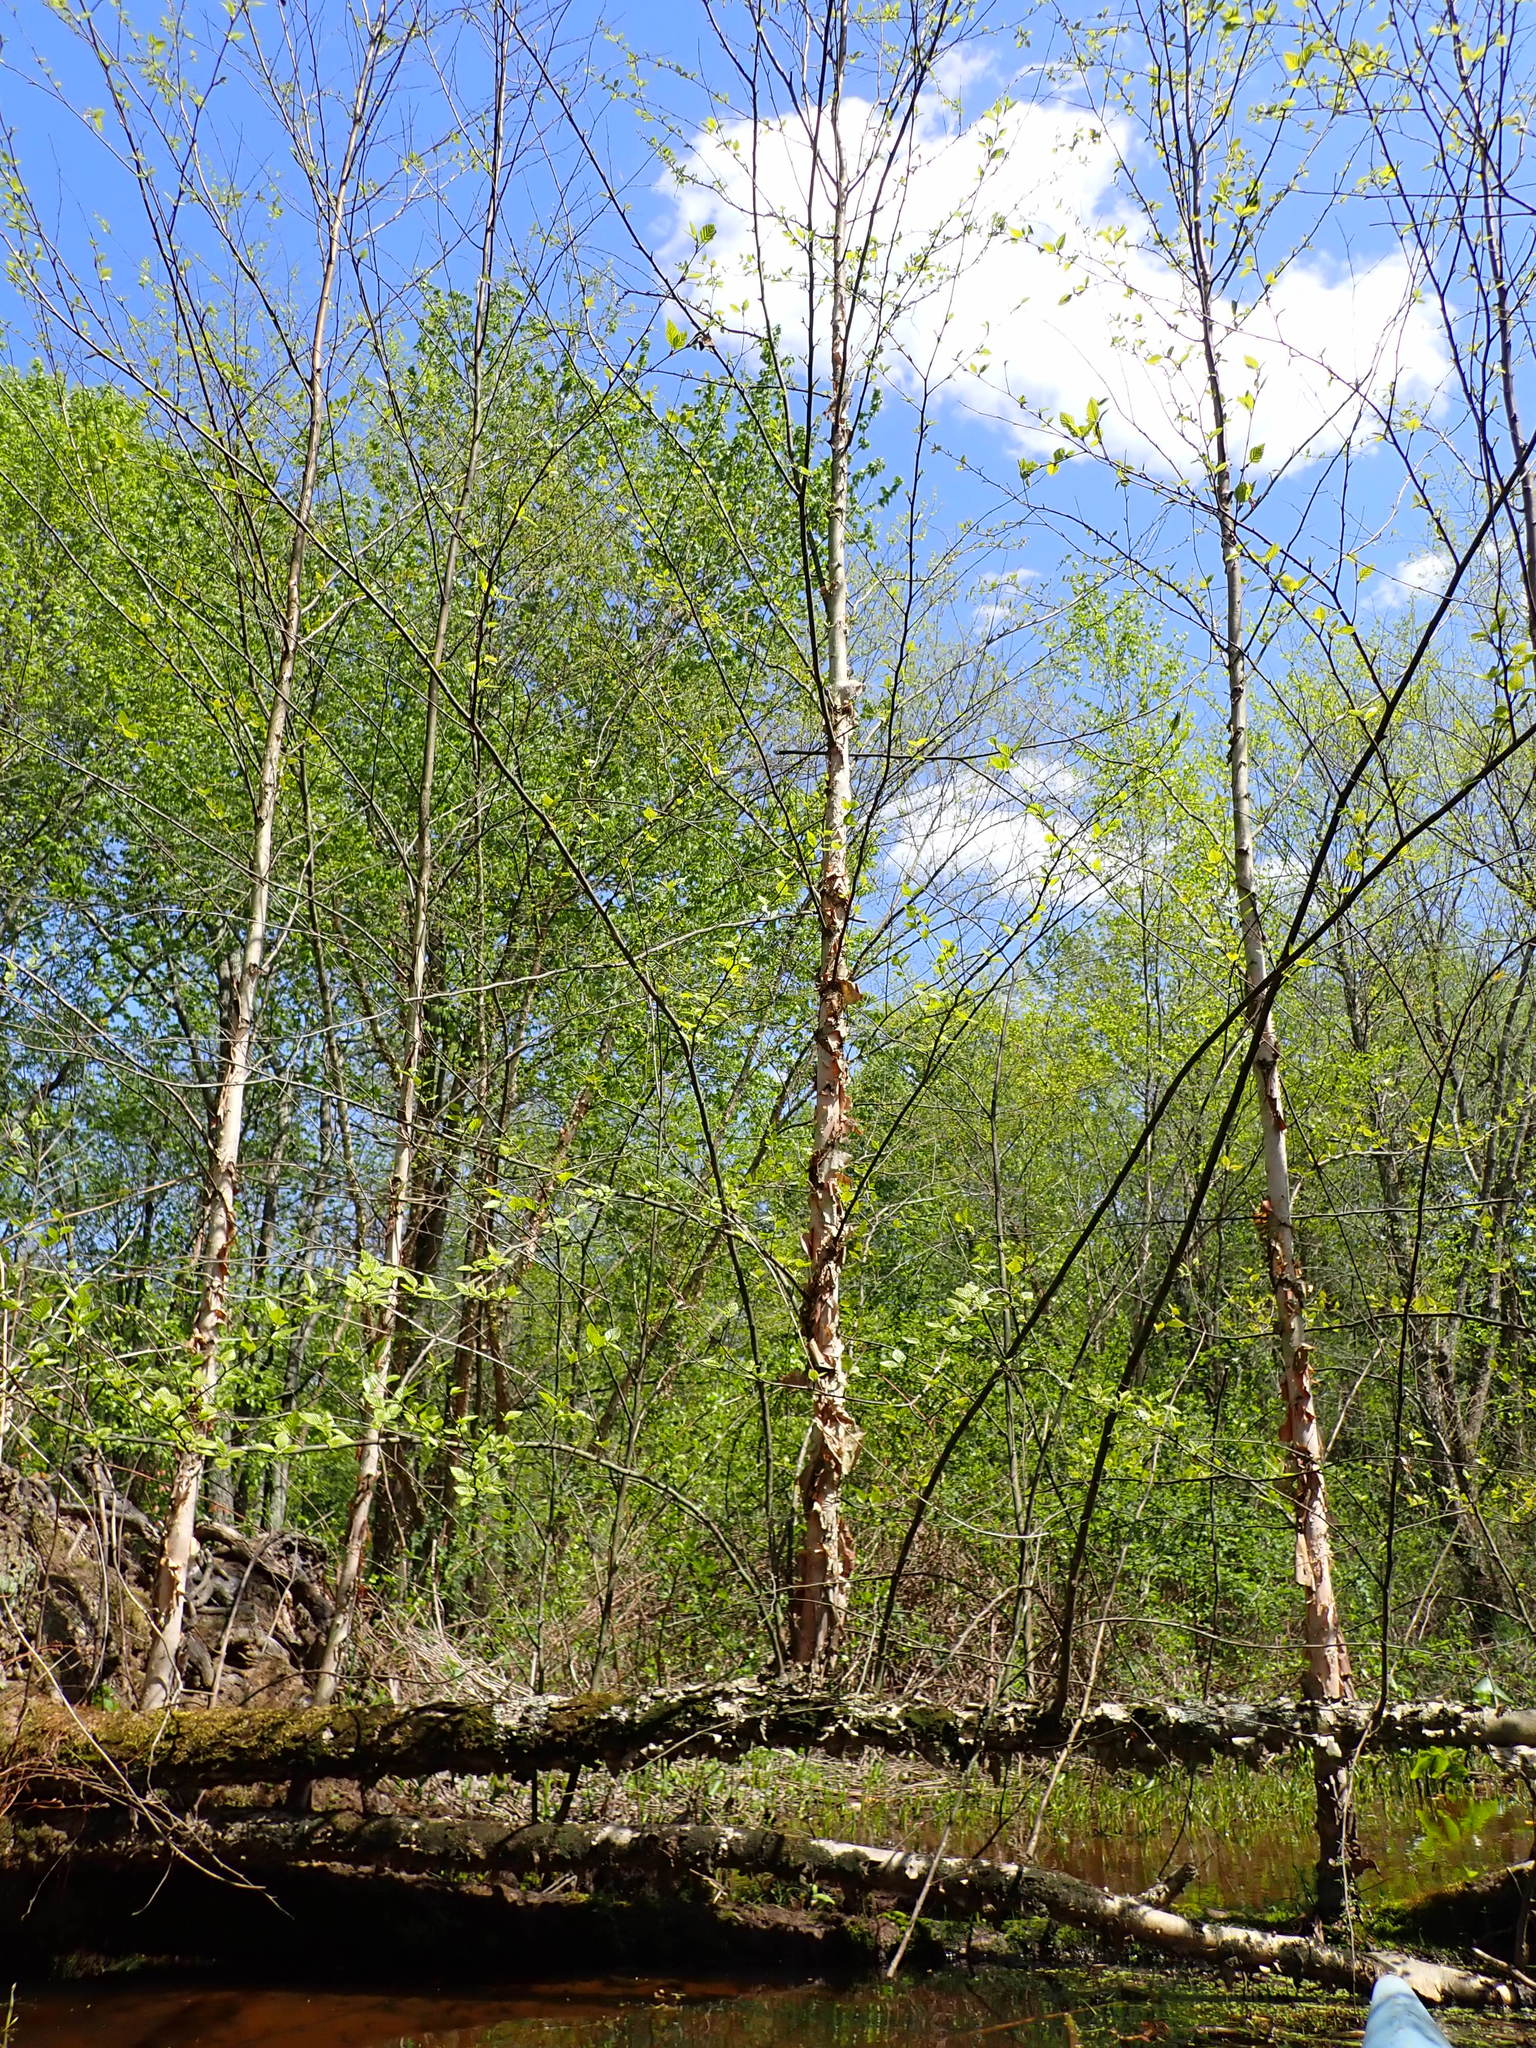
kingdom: Plantae
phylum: Tracheophyta
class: Magnoliopsida
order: Fagales
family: Betulaceae
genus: Betula
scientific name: Betula nigra
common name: Black birch
